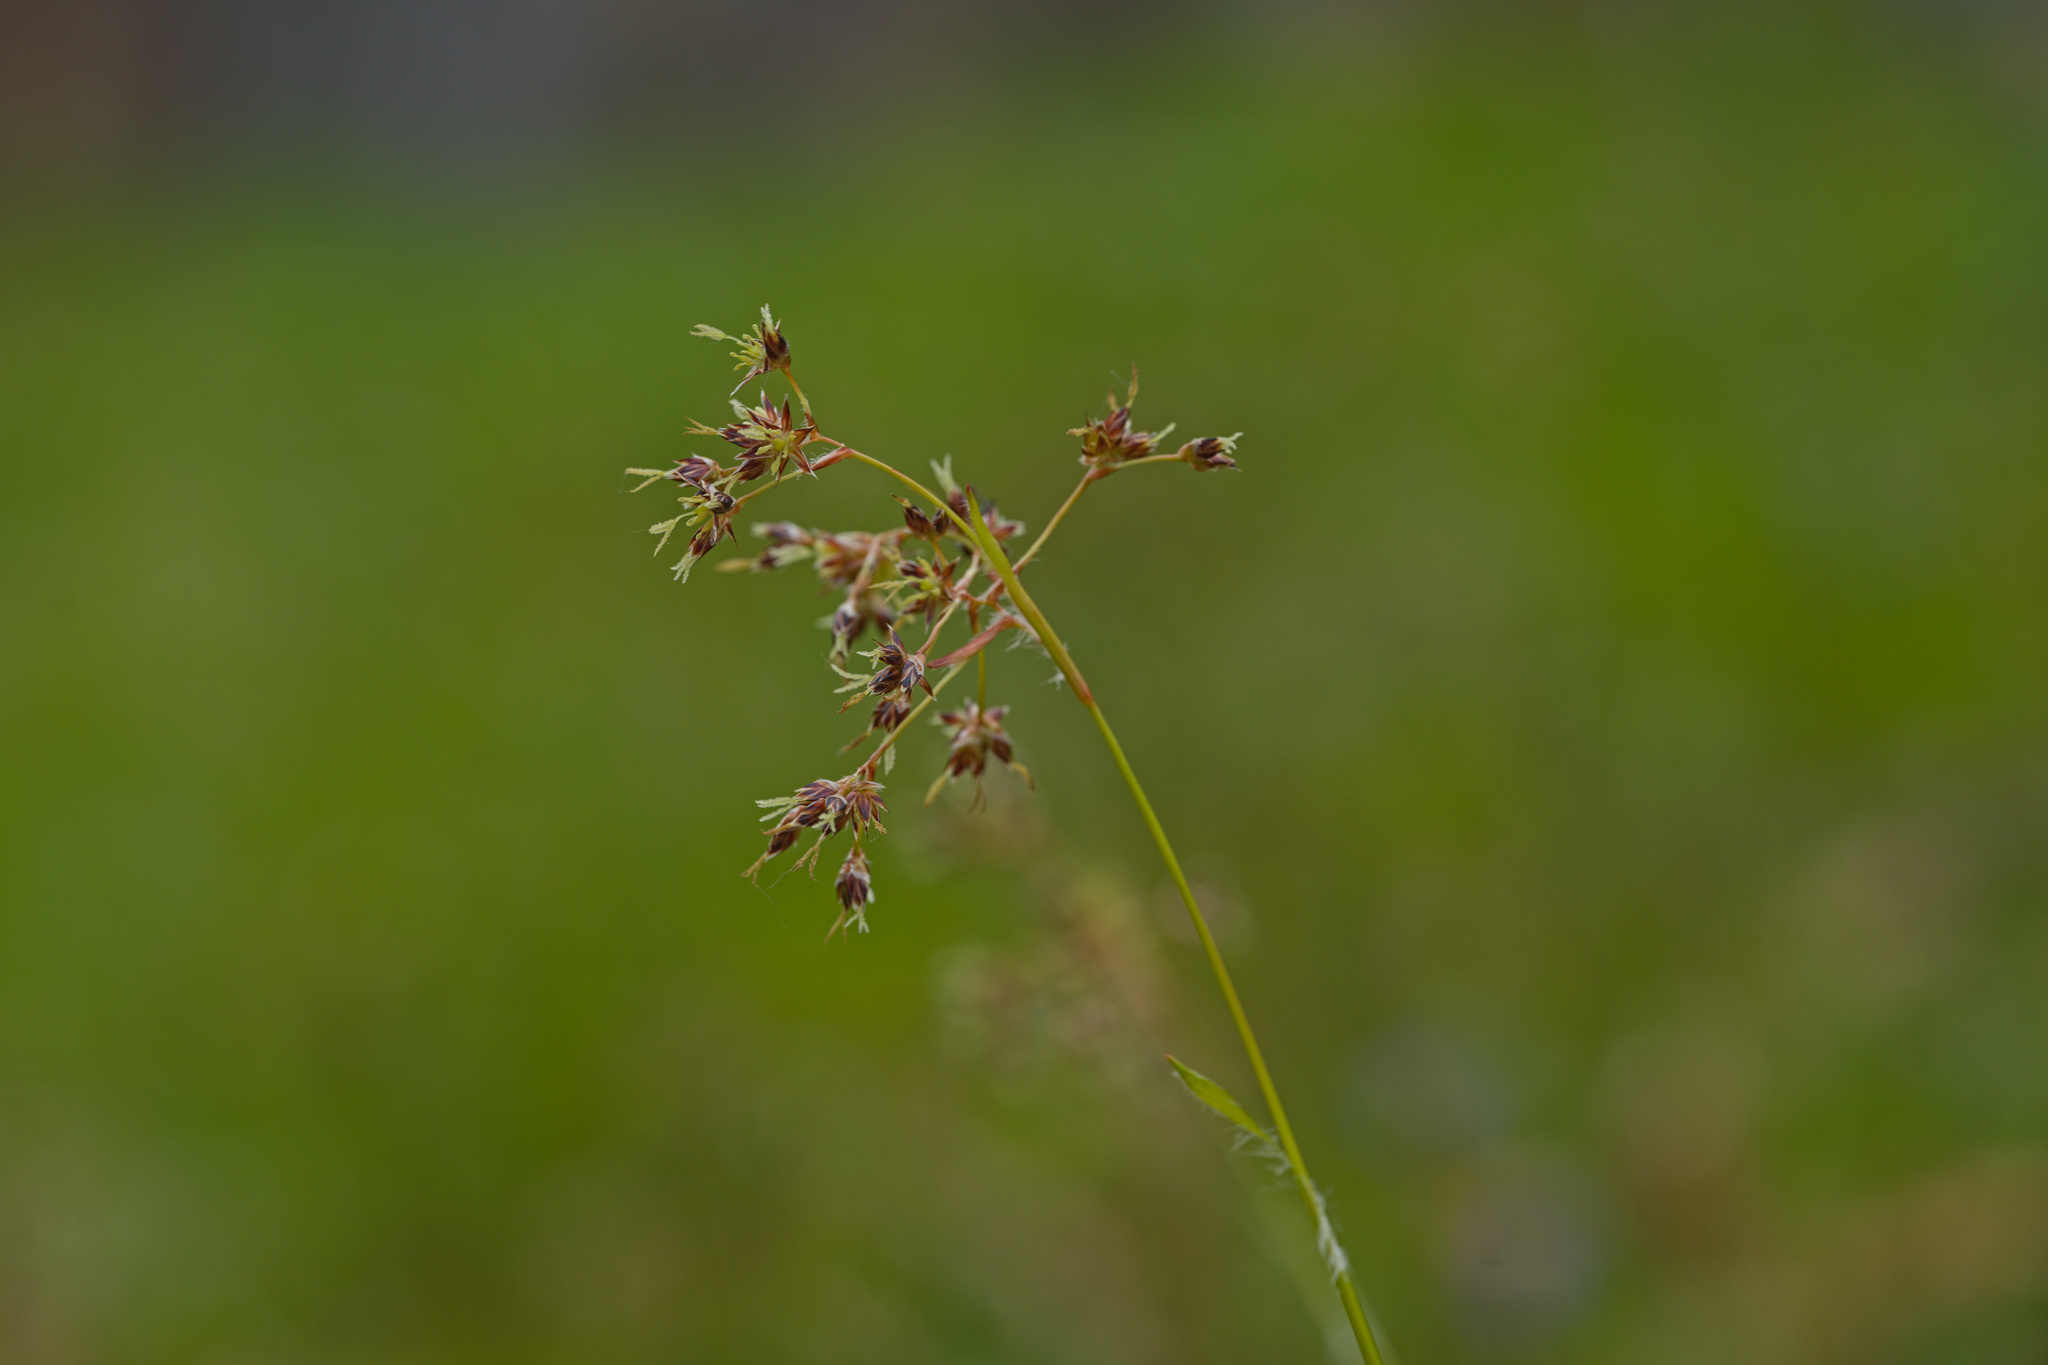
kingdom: Plantae
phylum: Tracheophyta
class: Liliopsida
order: Poales
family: Juncaceae
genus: Luzula
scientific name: Luzula sylvatica
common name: Great wood-rush
